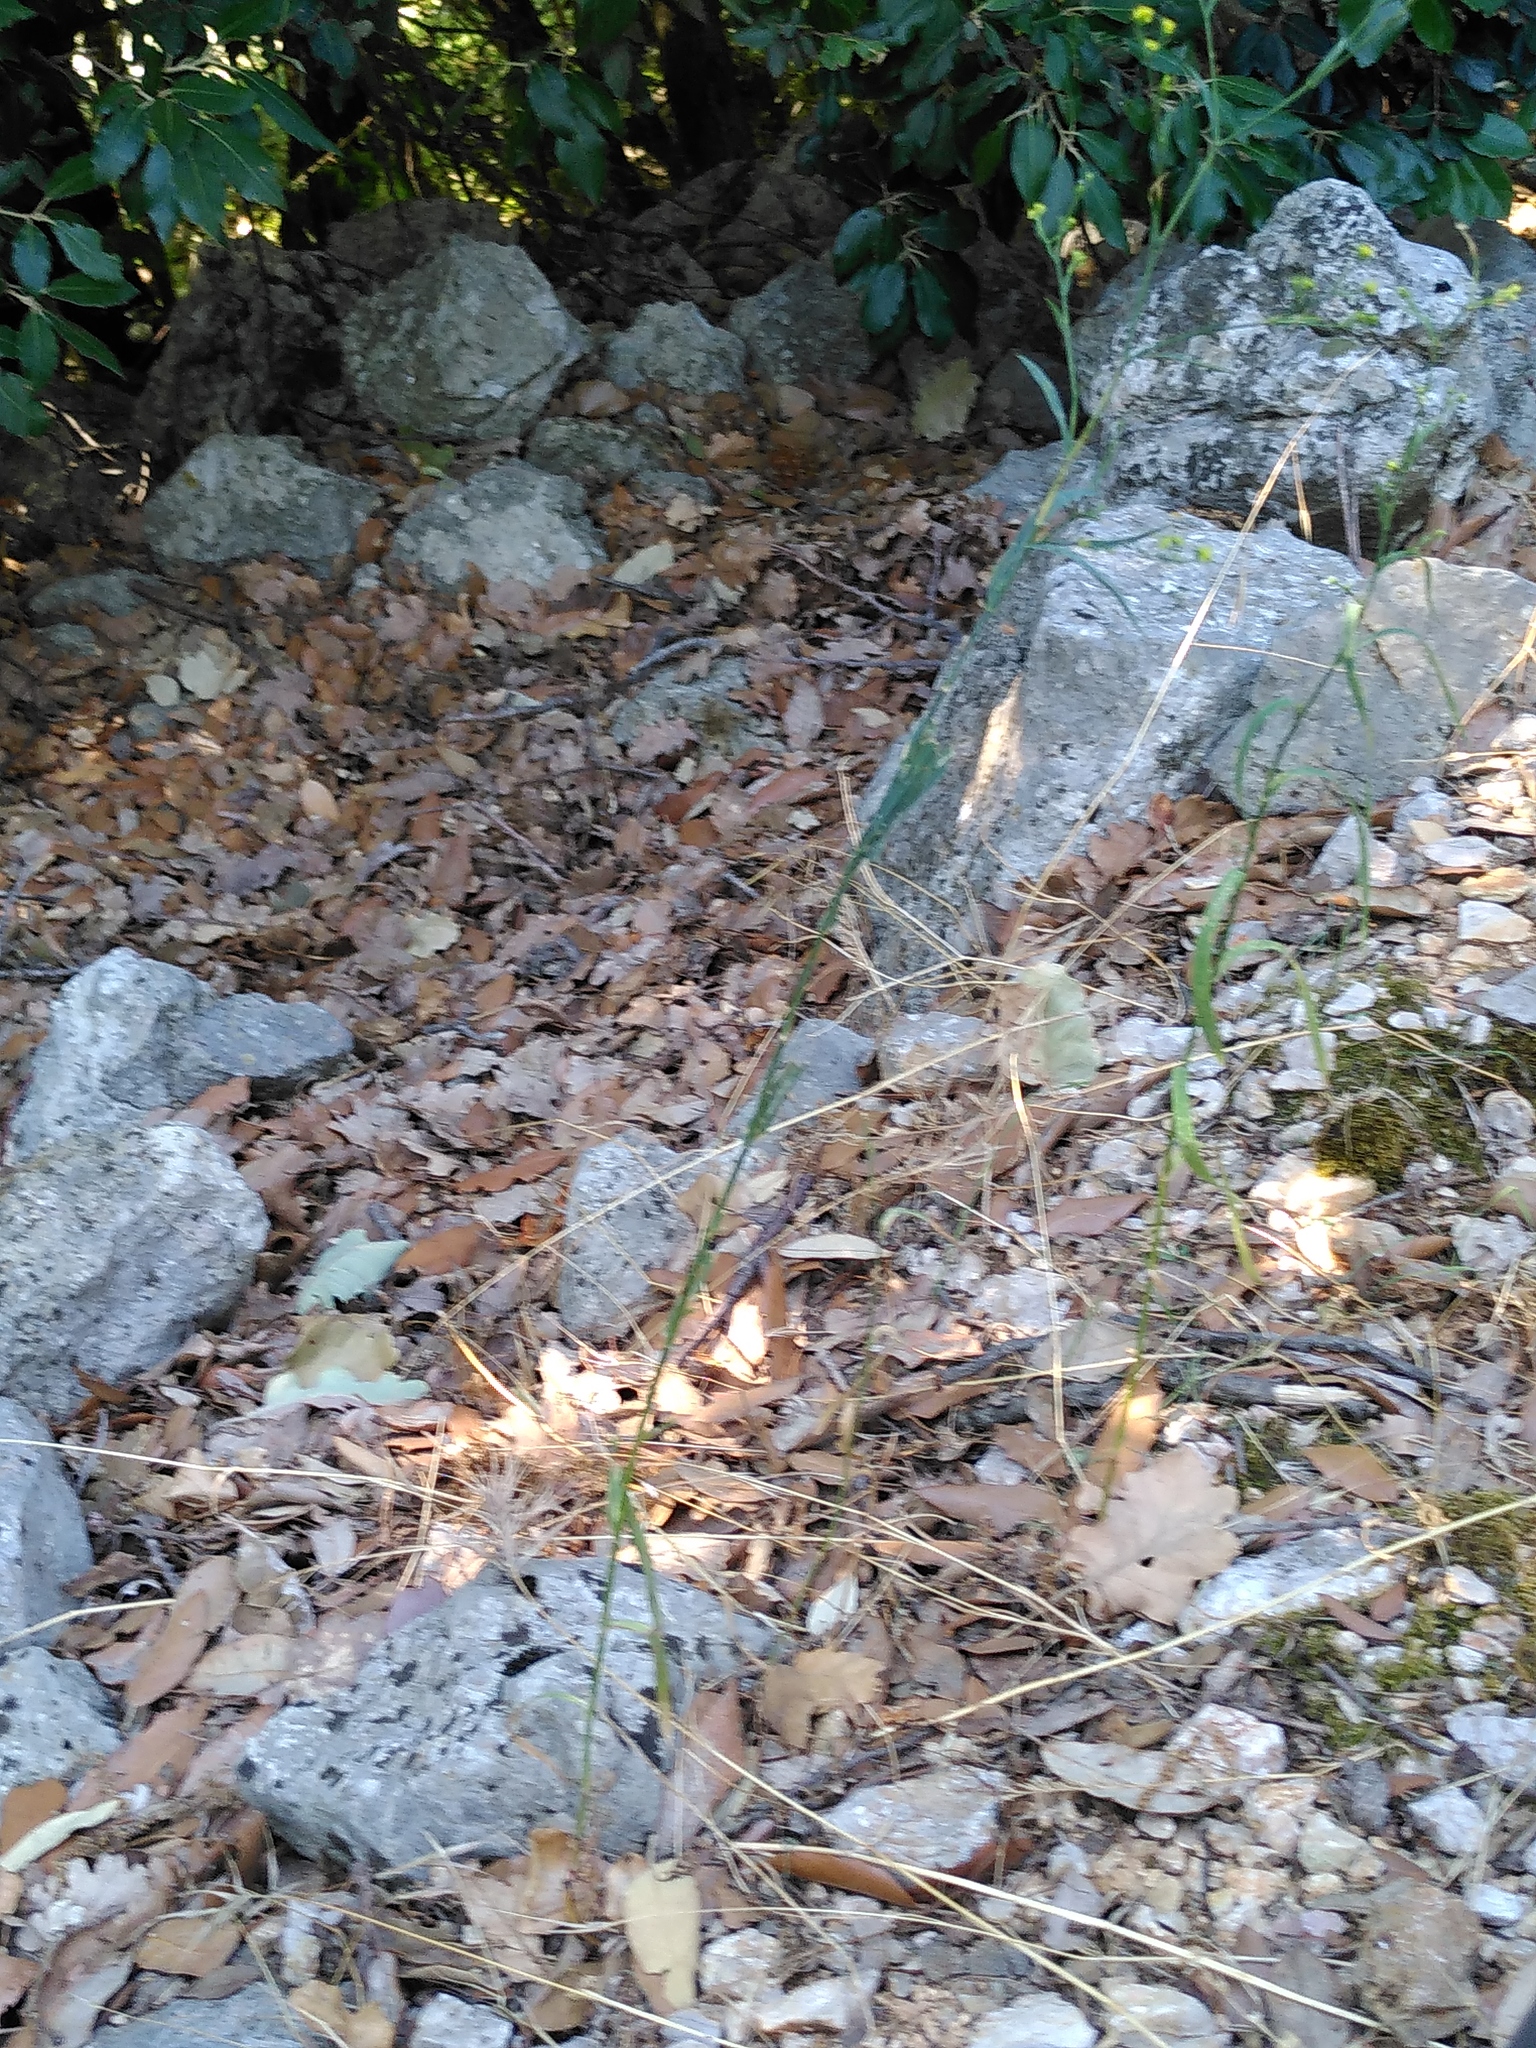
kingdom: Plantae
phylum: Tracheophyta
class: Magnoliopsida
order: Apiales
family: Apiaceae
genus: Bupleurum
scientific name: Bupleurum praealtum
